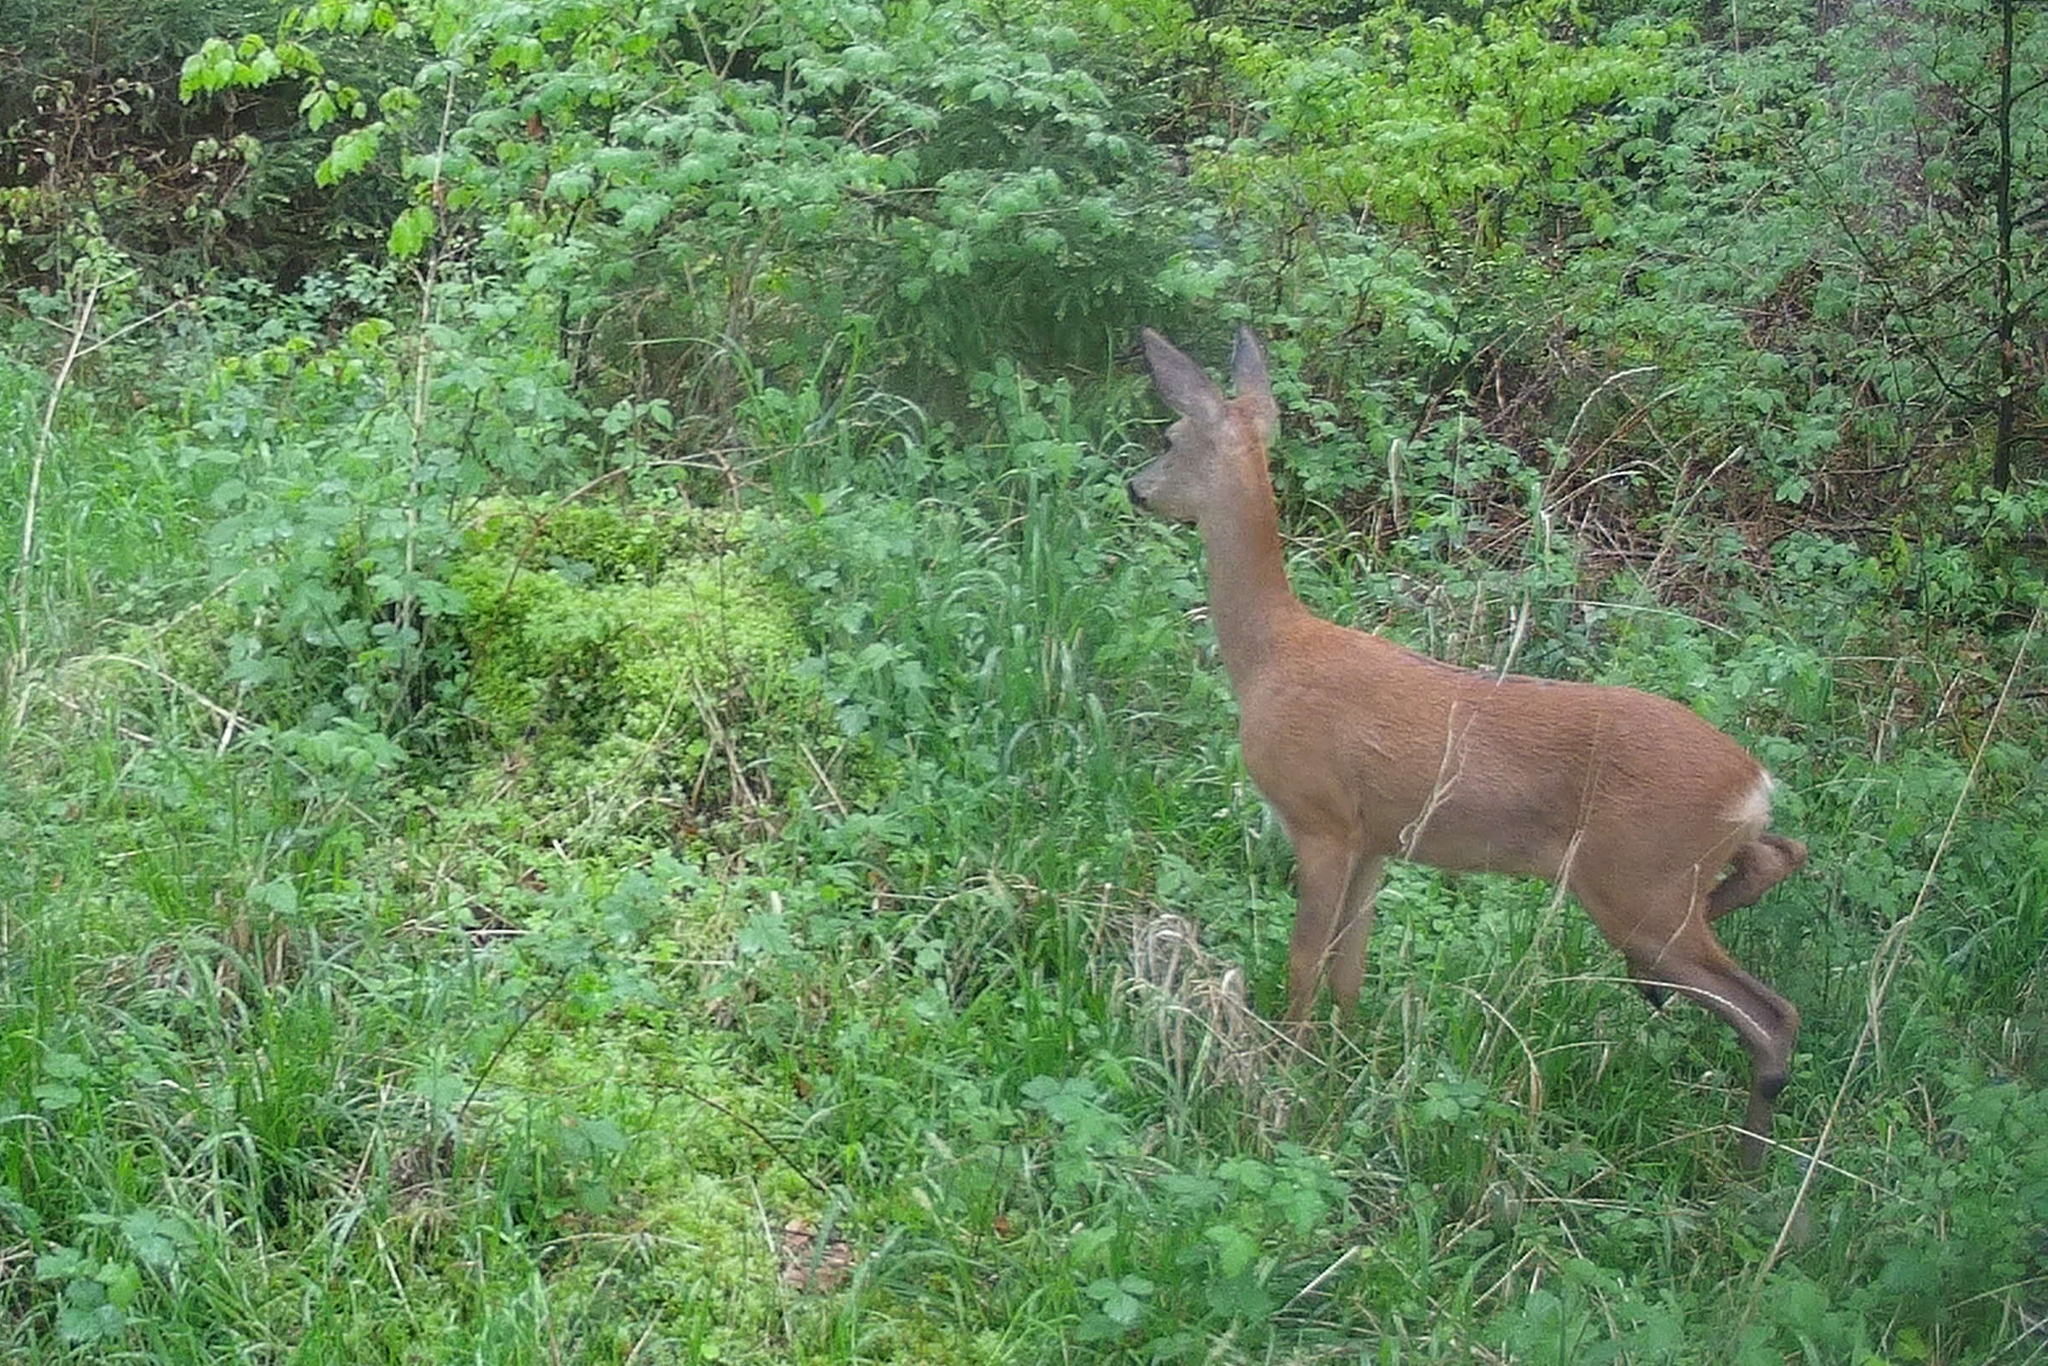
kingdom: Animalia
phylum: Chordata
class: Mammalia
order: Artiodactyla
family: Cervidae
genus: Capreolus
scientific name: Capreolus capreolus
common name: Western roe deer
